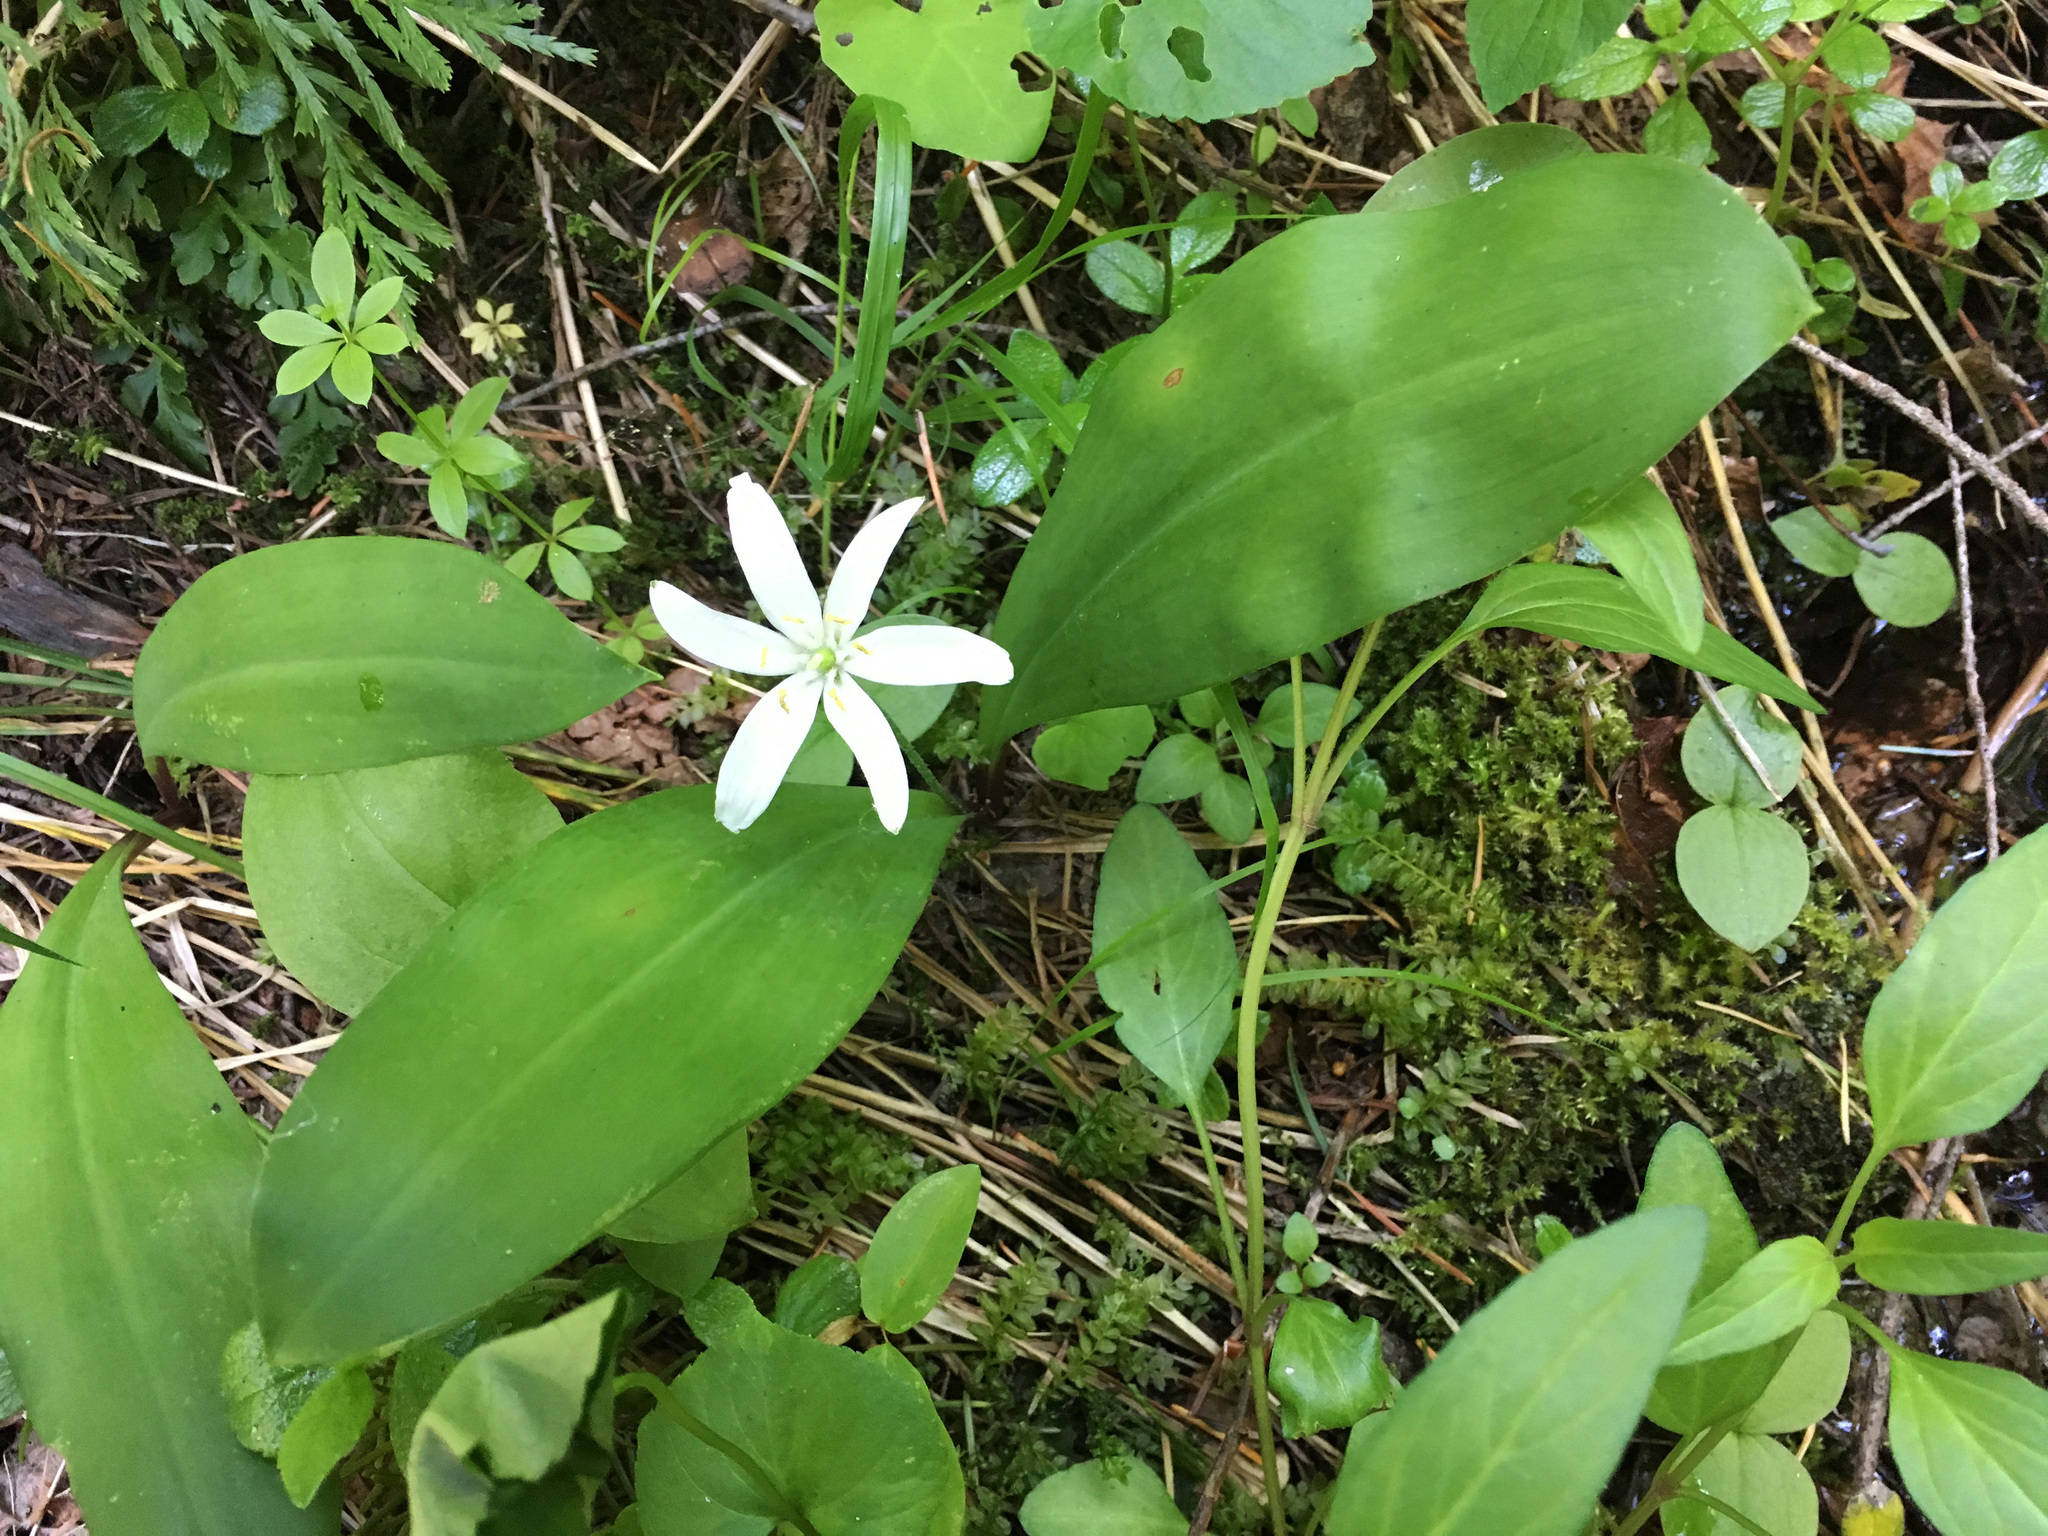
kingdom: Plantae
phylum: Tracheophyta
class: Liliopsida
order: Liliales
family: Liliaceae
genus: Clintonia
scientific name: Clintonia uniflora
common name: Queen's cup
